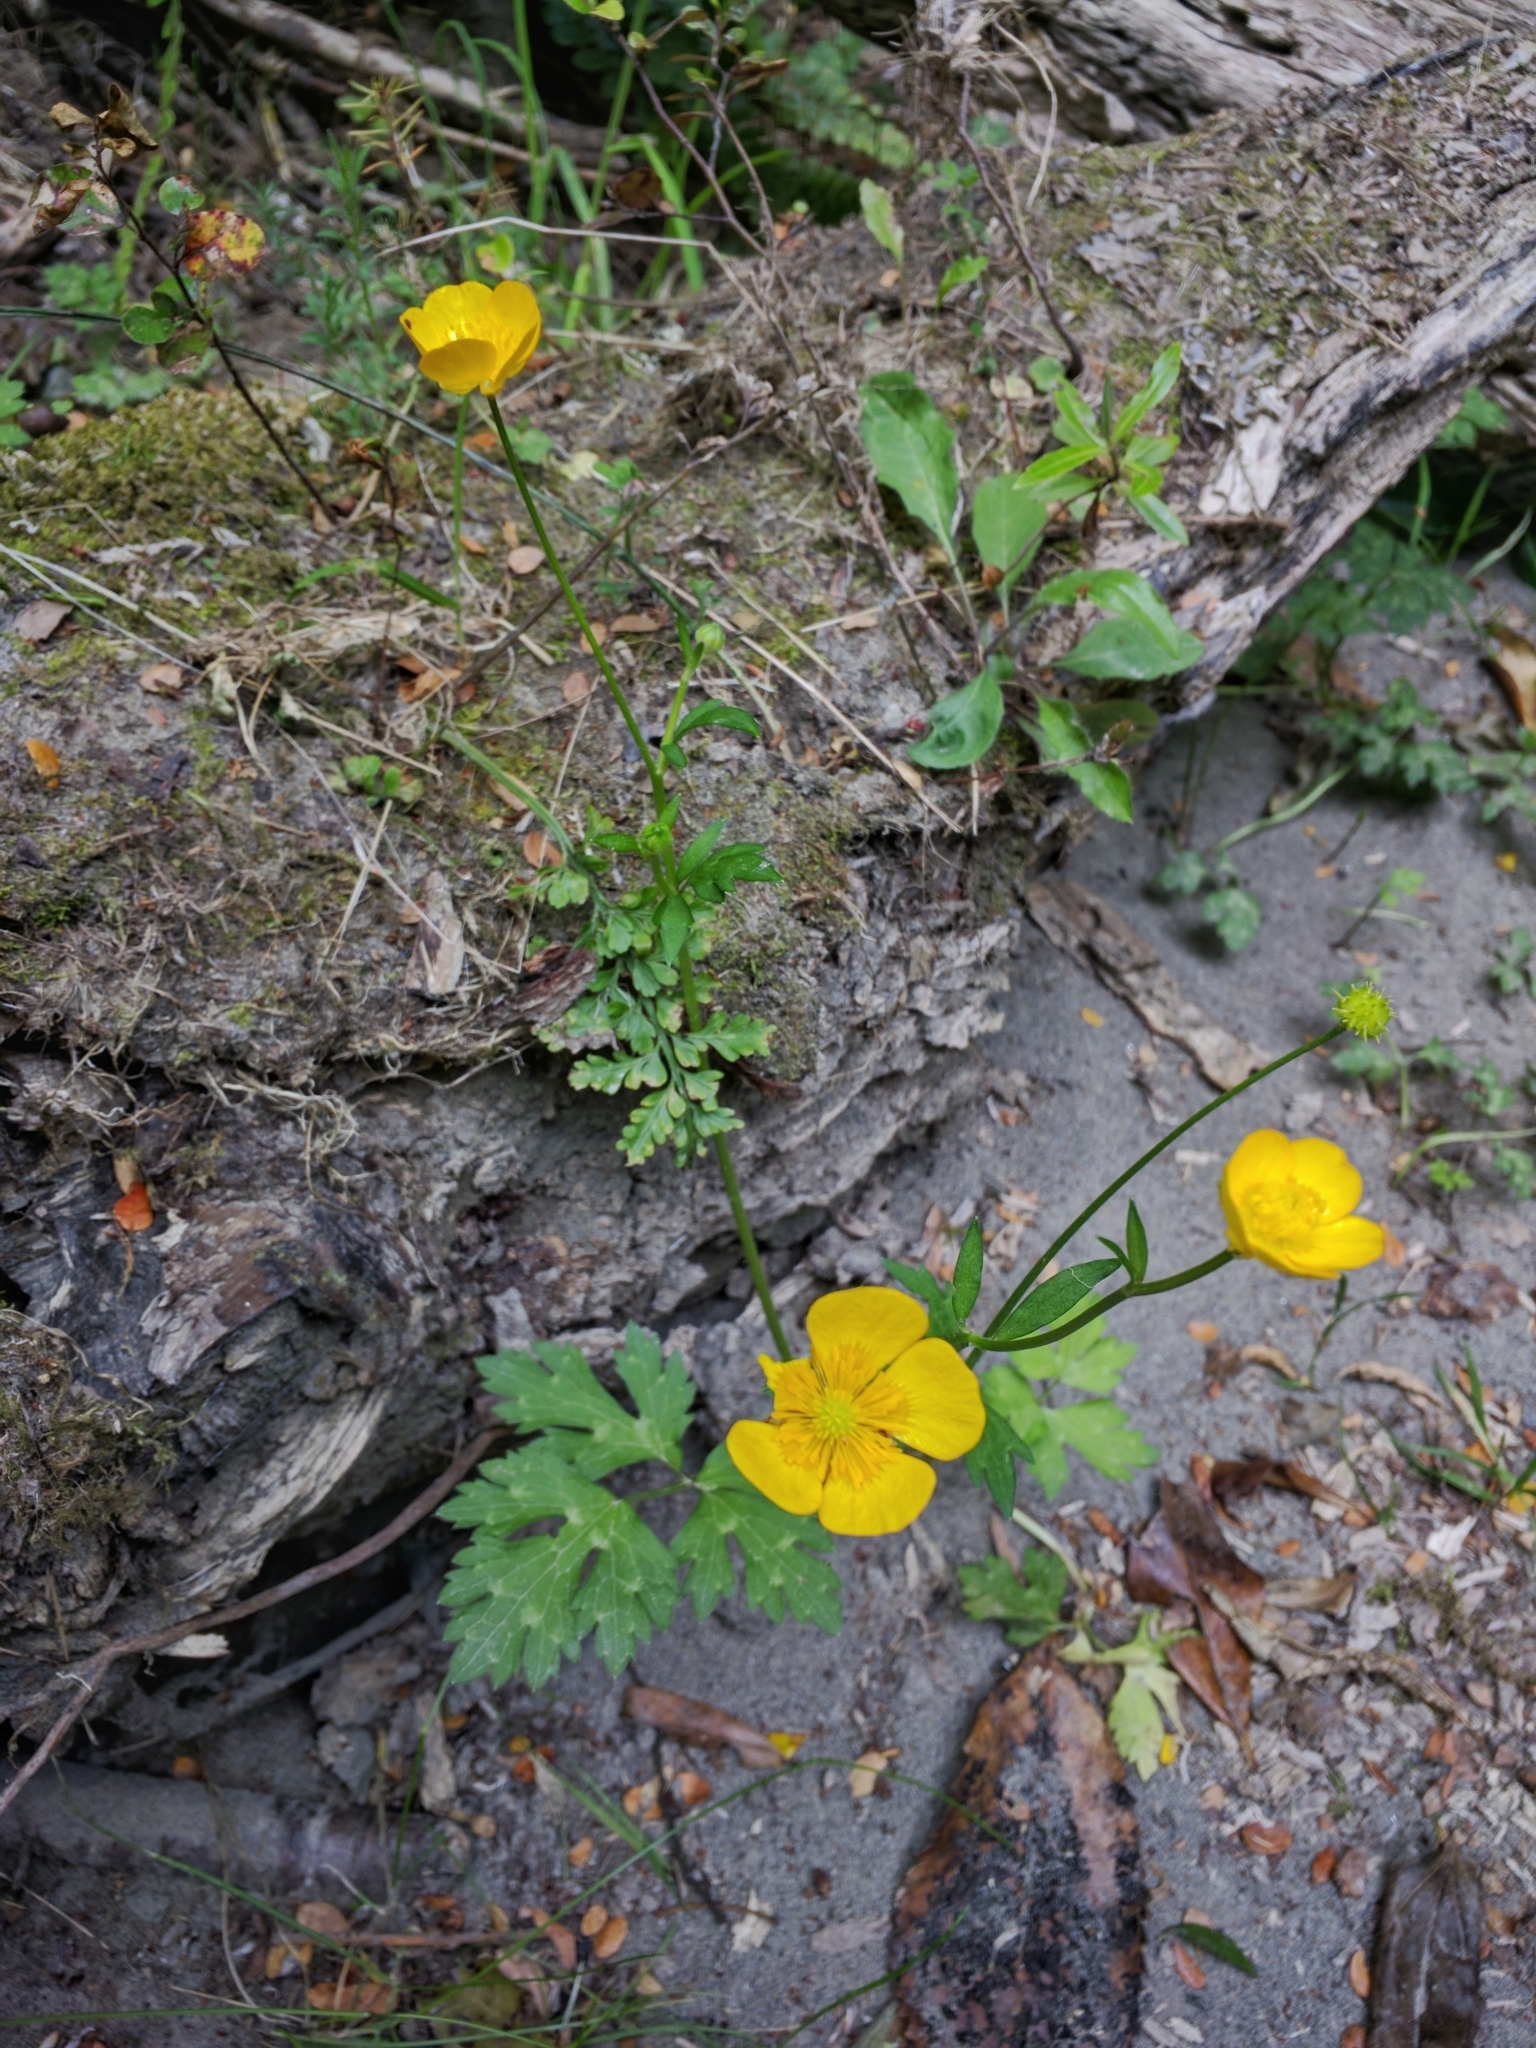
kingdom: Plantae
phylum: Tracheophyta
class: Magnoliopsida
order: Ranunculales
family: Ranunculaceae
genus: Ranunculus
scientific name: Ranunculus repens
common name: Creeping buttercup
